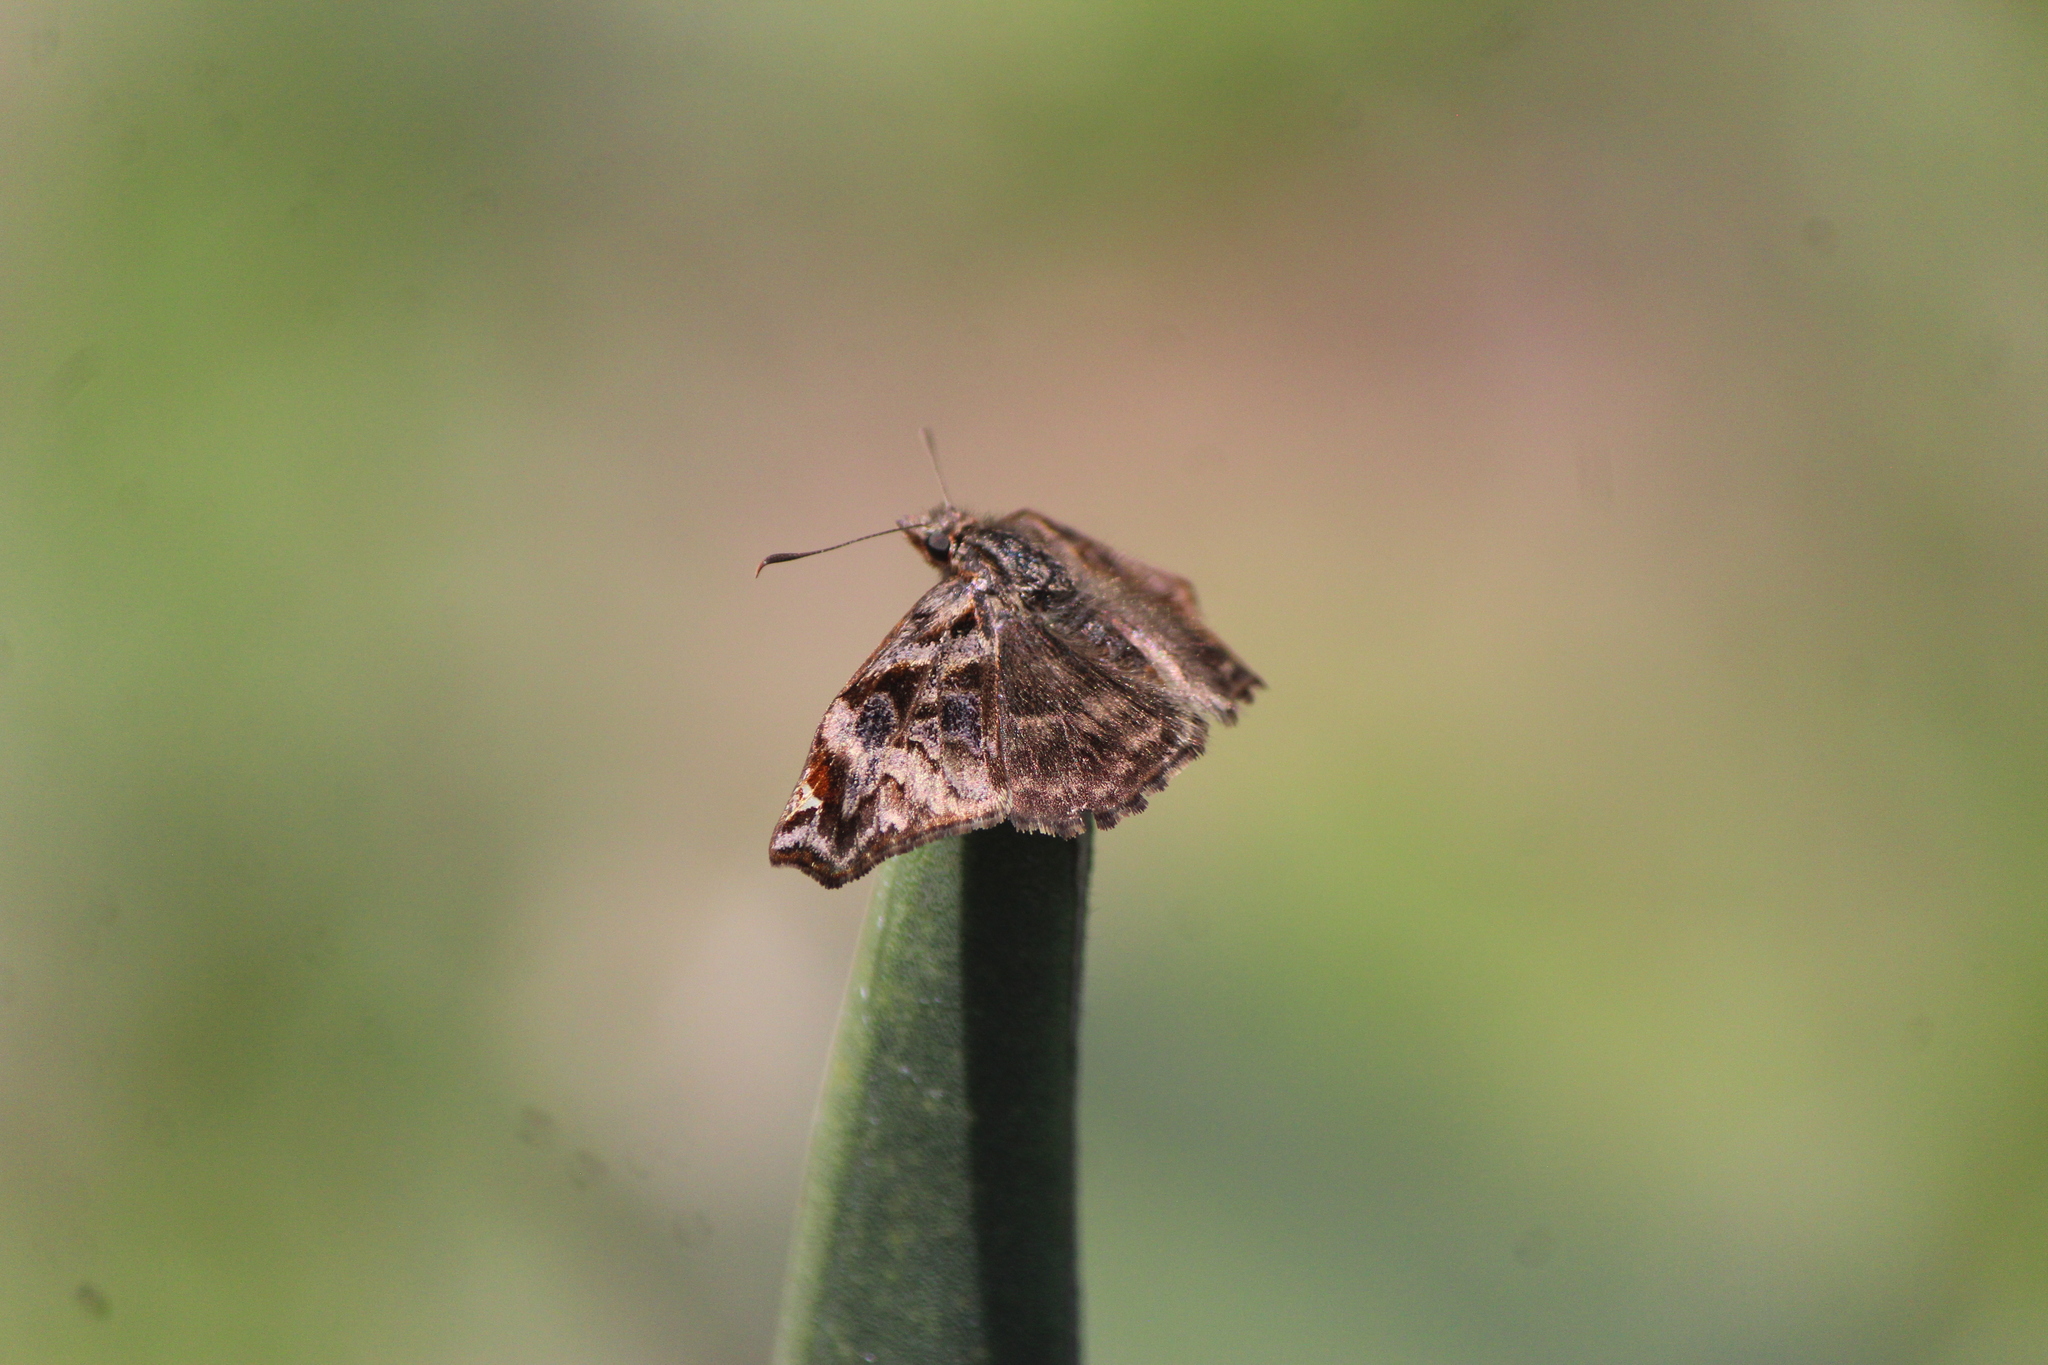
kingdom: Animalia
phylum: Arthropoda
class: Insecta
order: Lepidoptera
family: Hesperiidae
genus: Noctuana
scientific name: Noctuana stator
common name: Red-studded skipper
